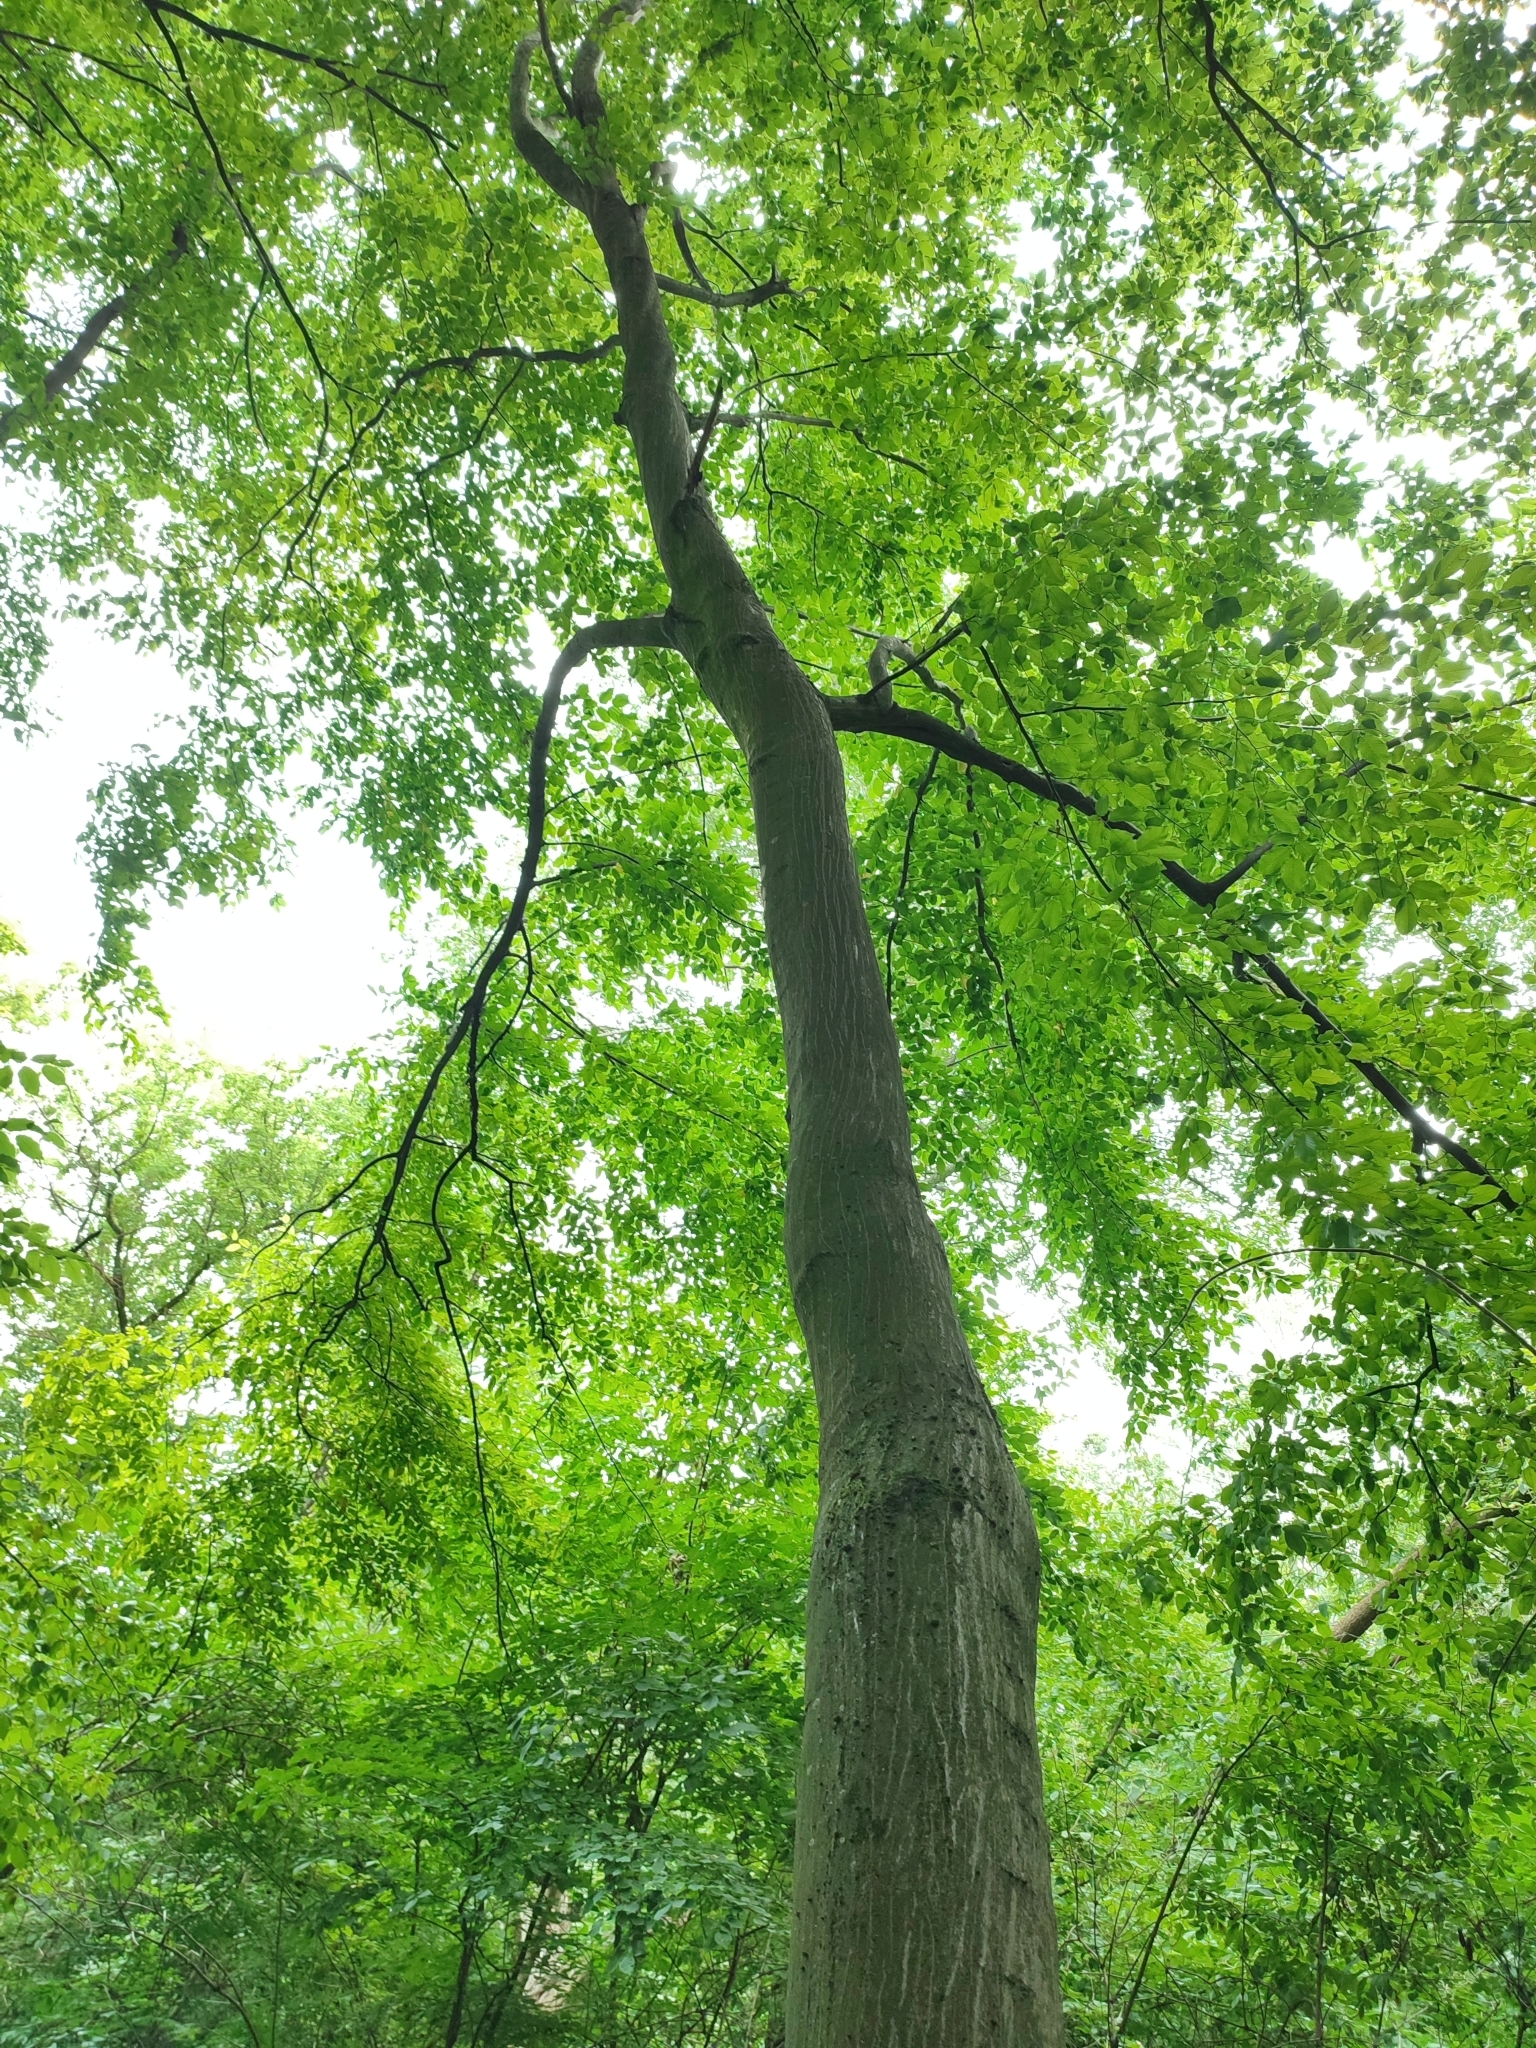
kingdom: Plantae
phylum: Tracheophyta
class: Magnoliopsida
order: Fagales
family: Betulaceae
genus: Carpinus
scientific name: Carpinus betulus
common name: Hornbeam
